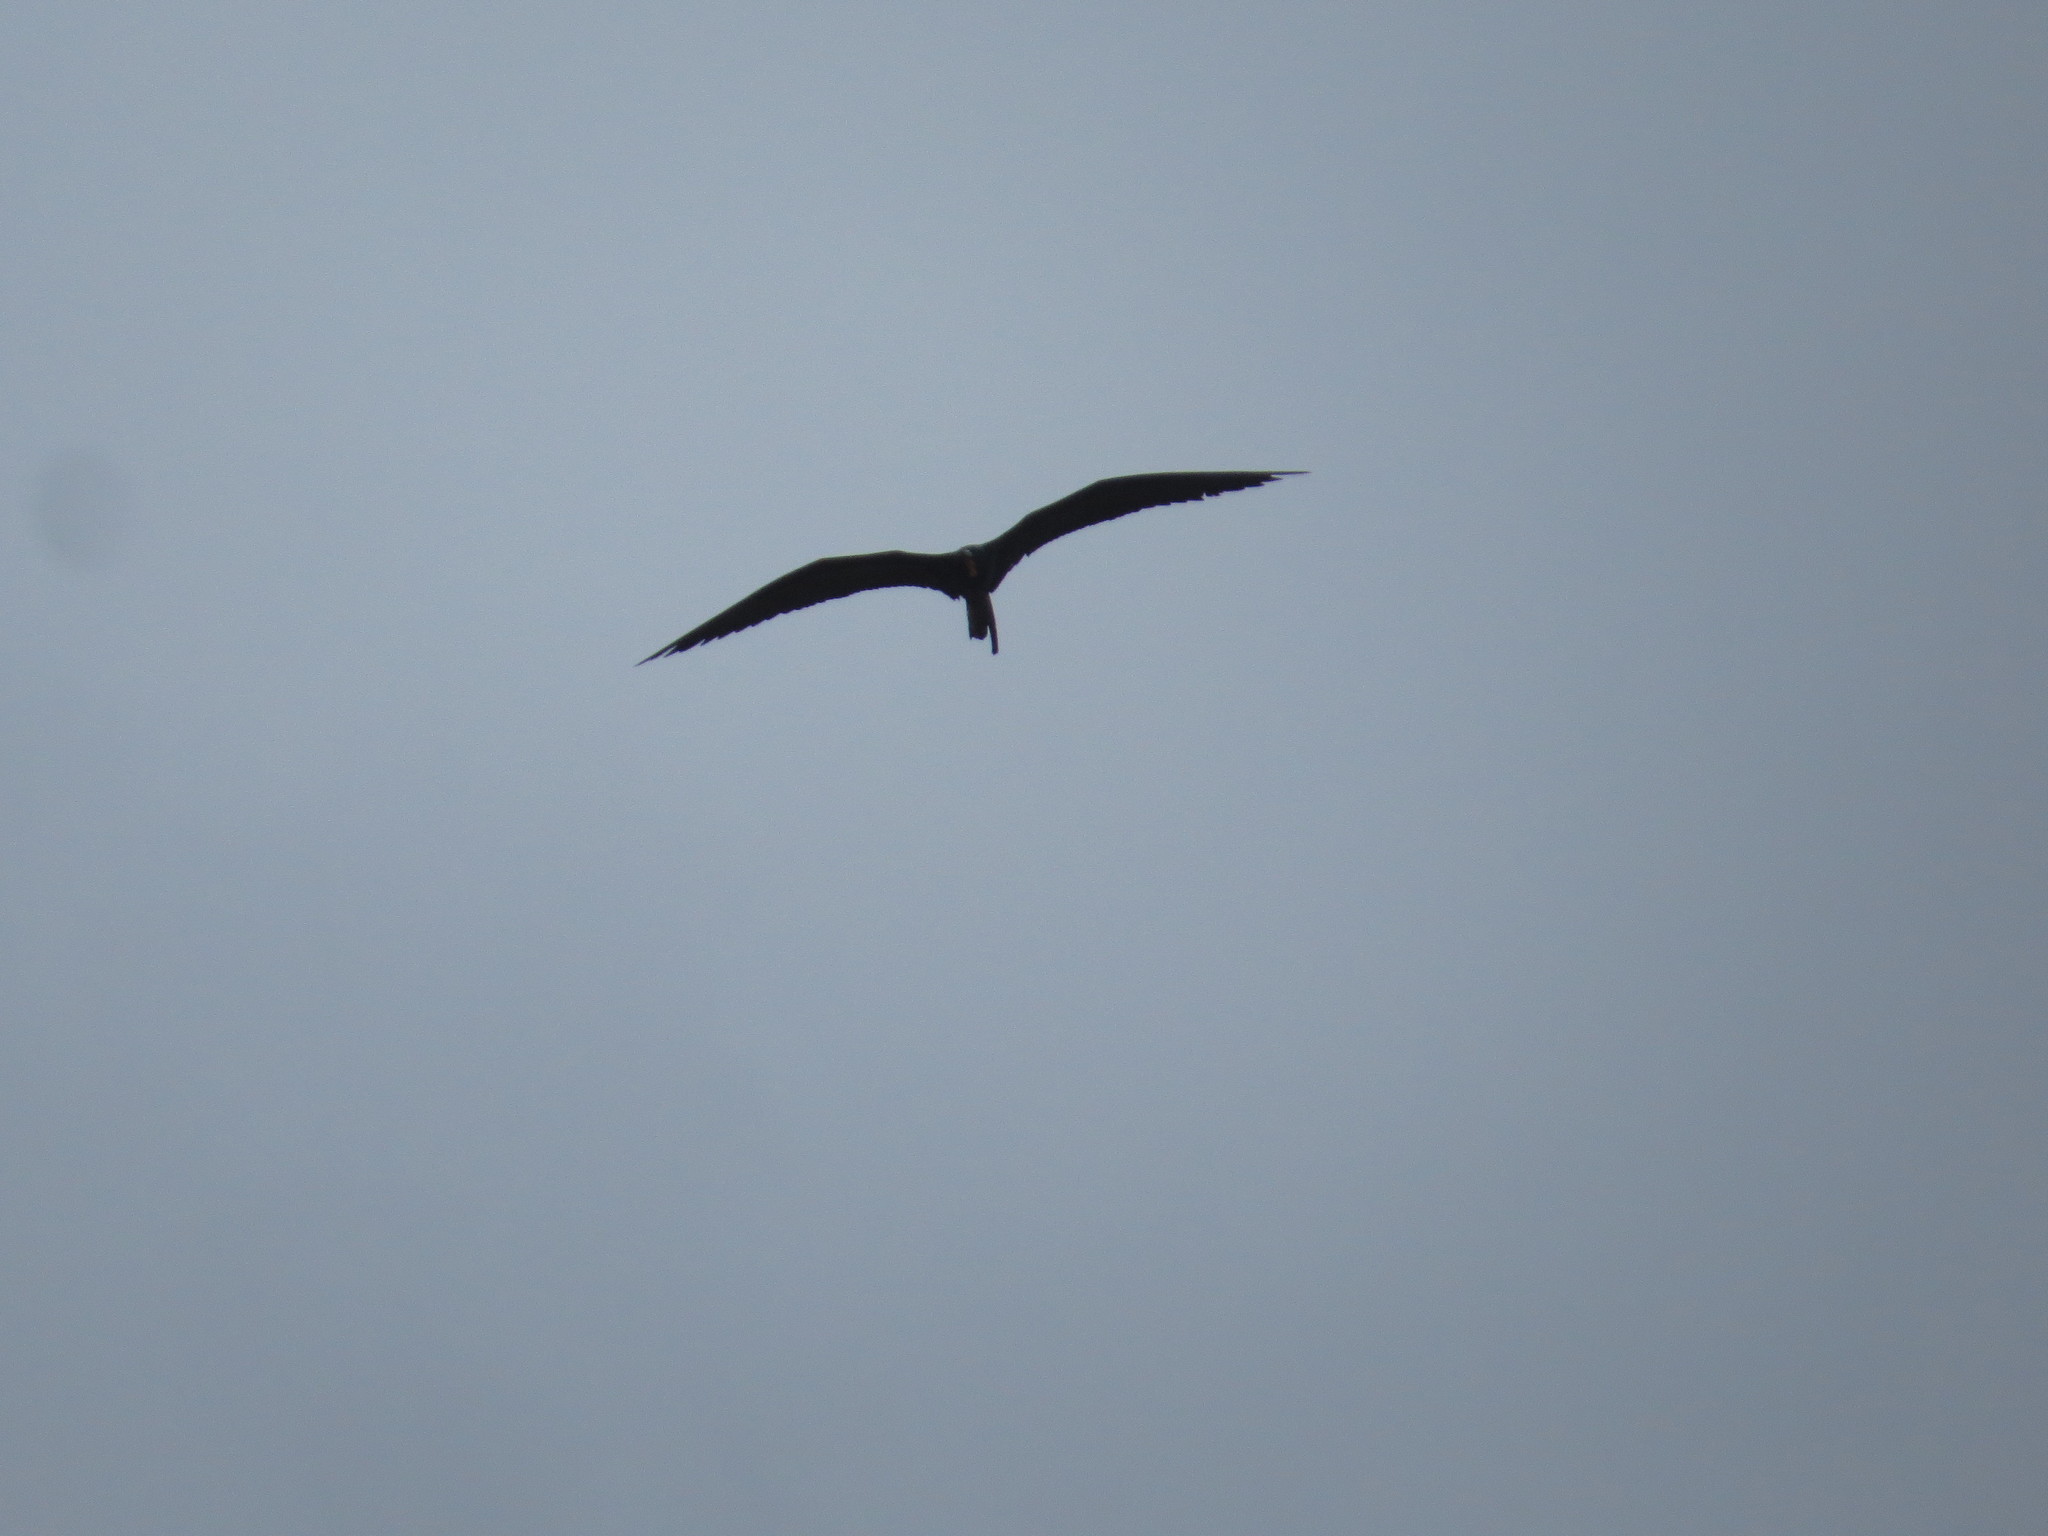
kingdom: Animalia
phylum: Chordata
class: Aves
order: Suliformes
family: Fregatidae
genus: Fregata
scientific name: Fregata magnificens
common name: Magnificent frigatebird
